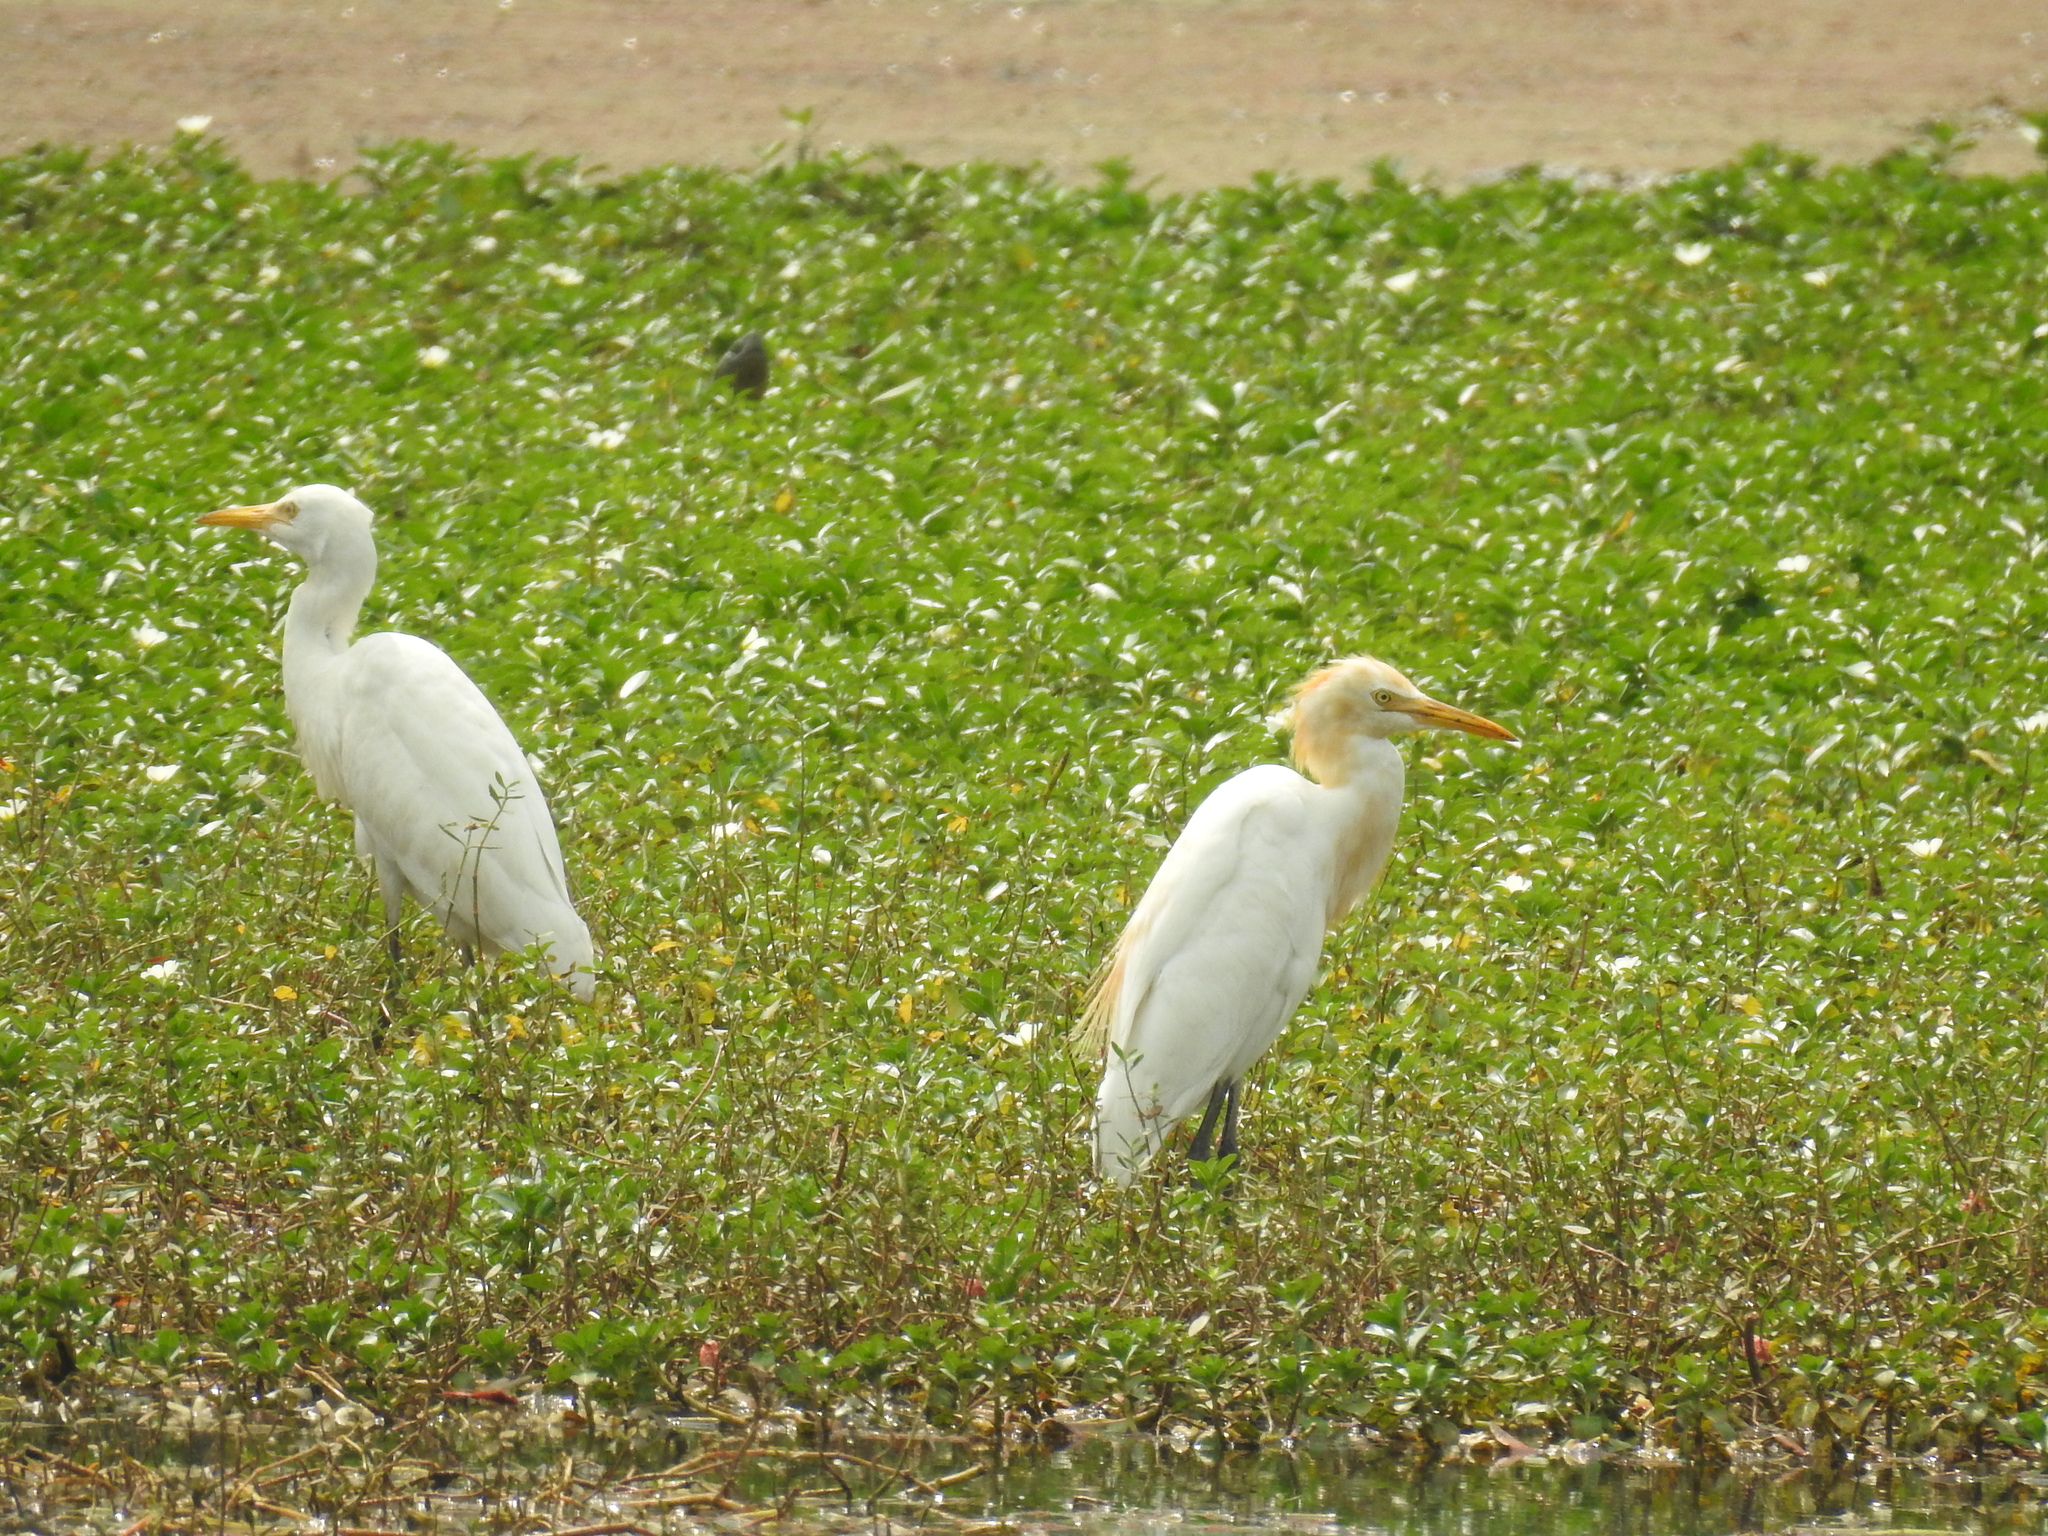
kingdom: Animalia
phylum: Chordata
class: Aves
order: Pelecaniformes
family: Ardeidae
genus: Bubulcus
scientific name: Bubulcus coromandus
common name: Eastern cattle egret
